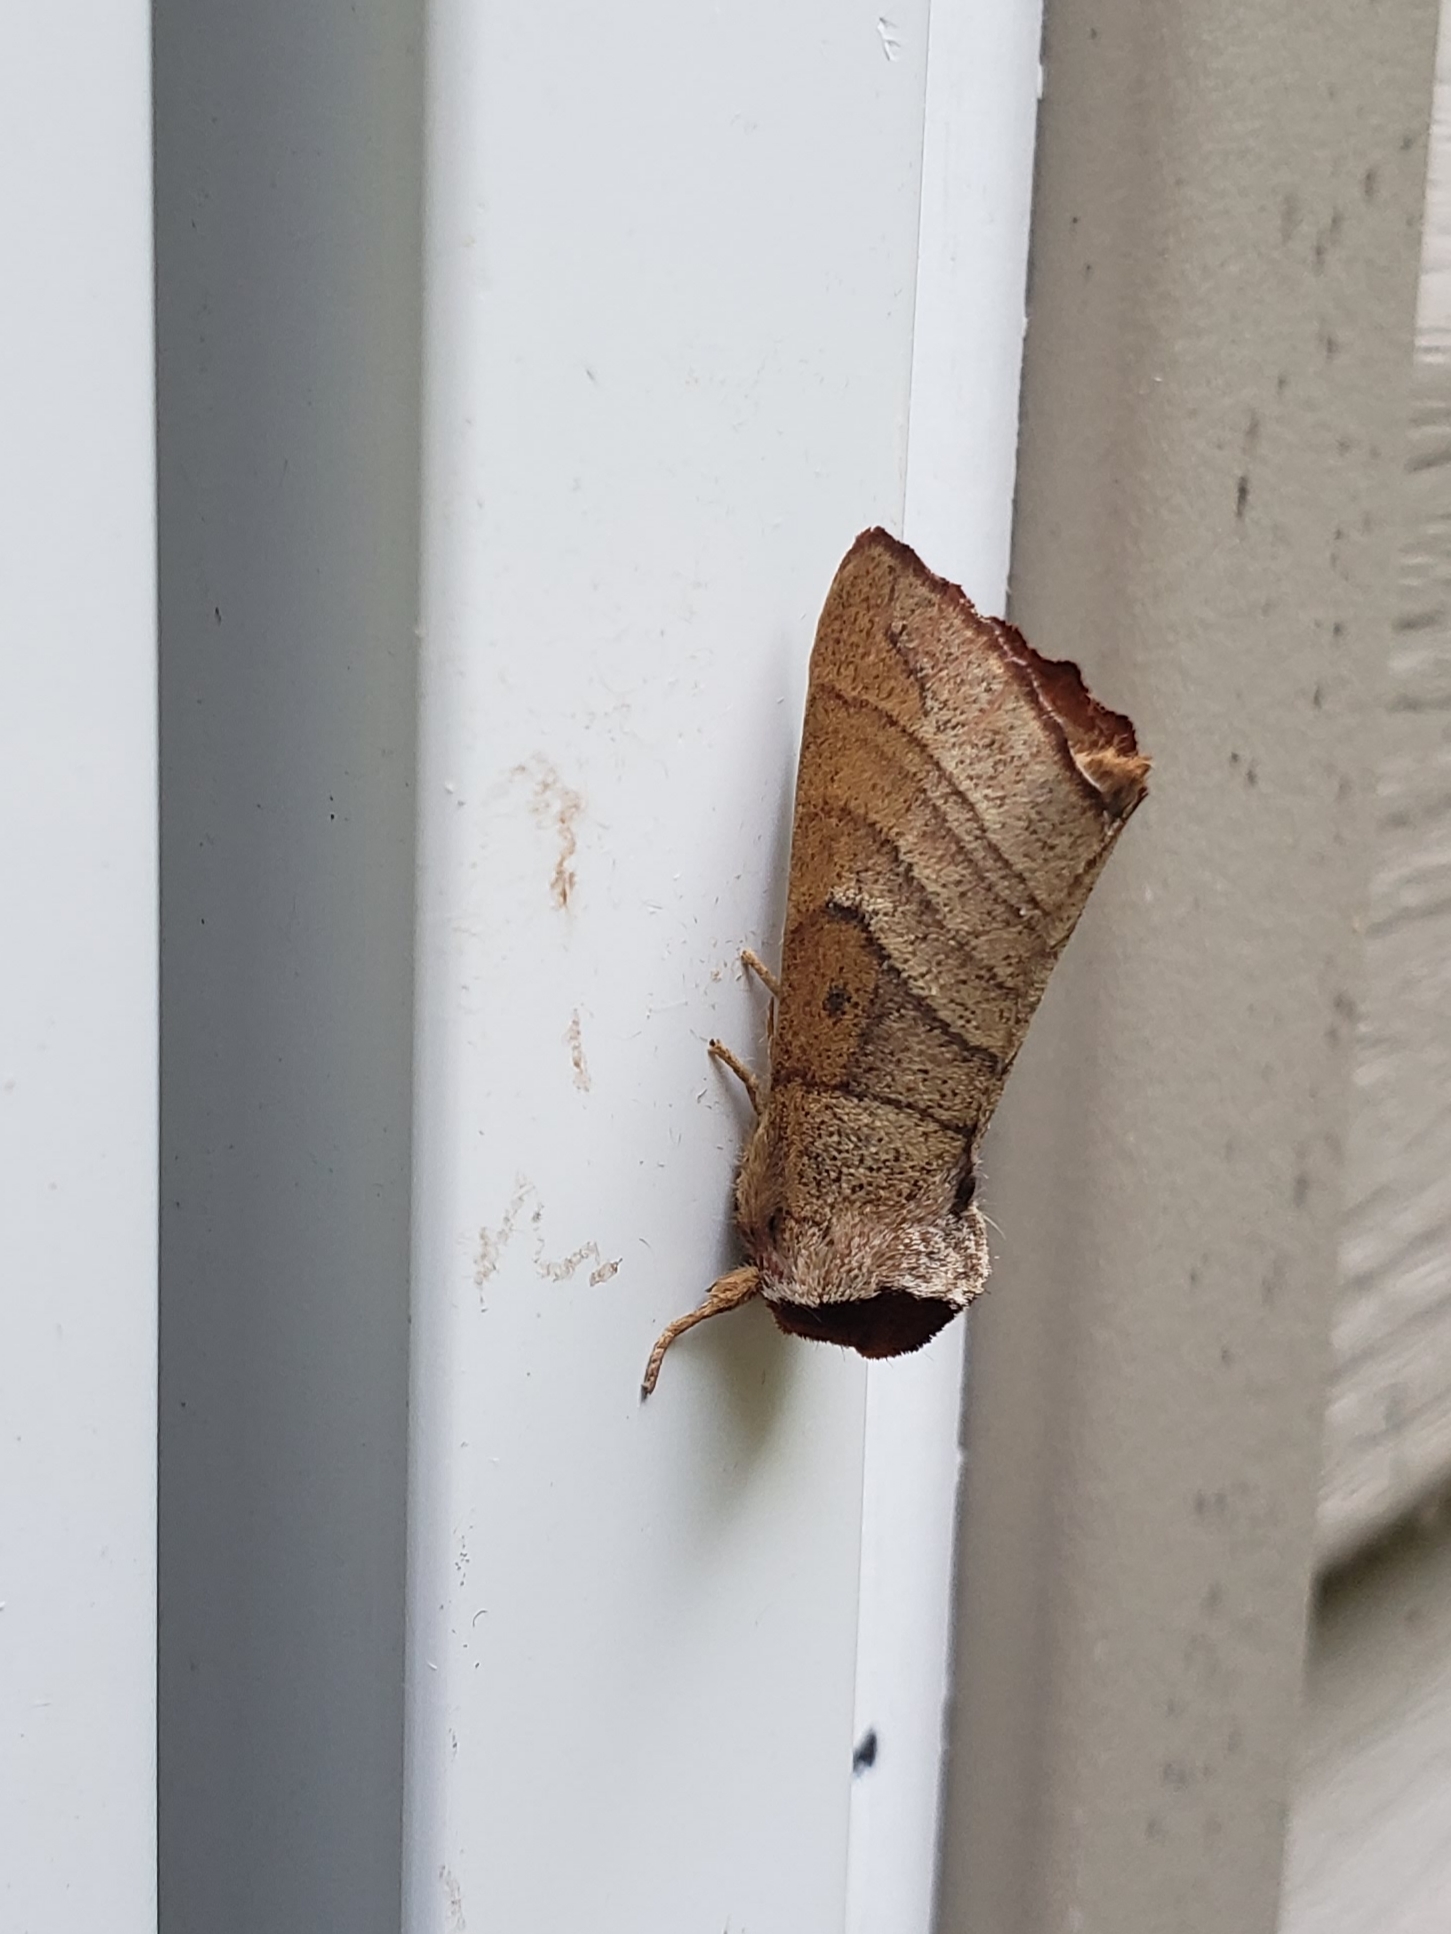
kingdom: Animalia
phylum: Arthropoda
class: Insecta
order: Lepidoptera
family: Notodontidae
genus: Datana
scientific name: Datana ministra
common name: Yellow-necked caterpillar moth
